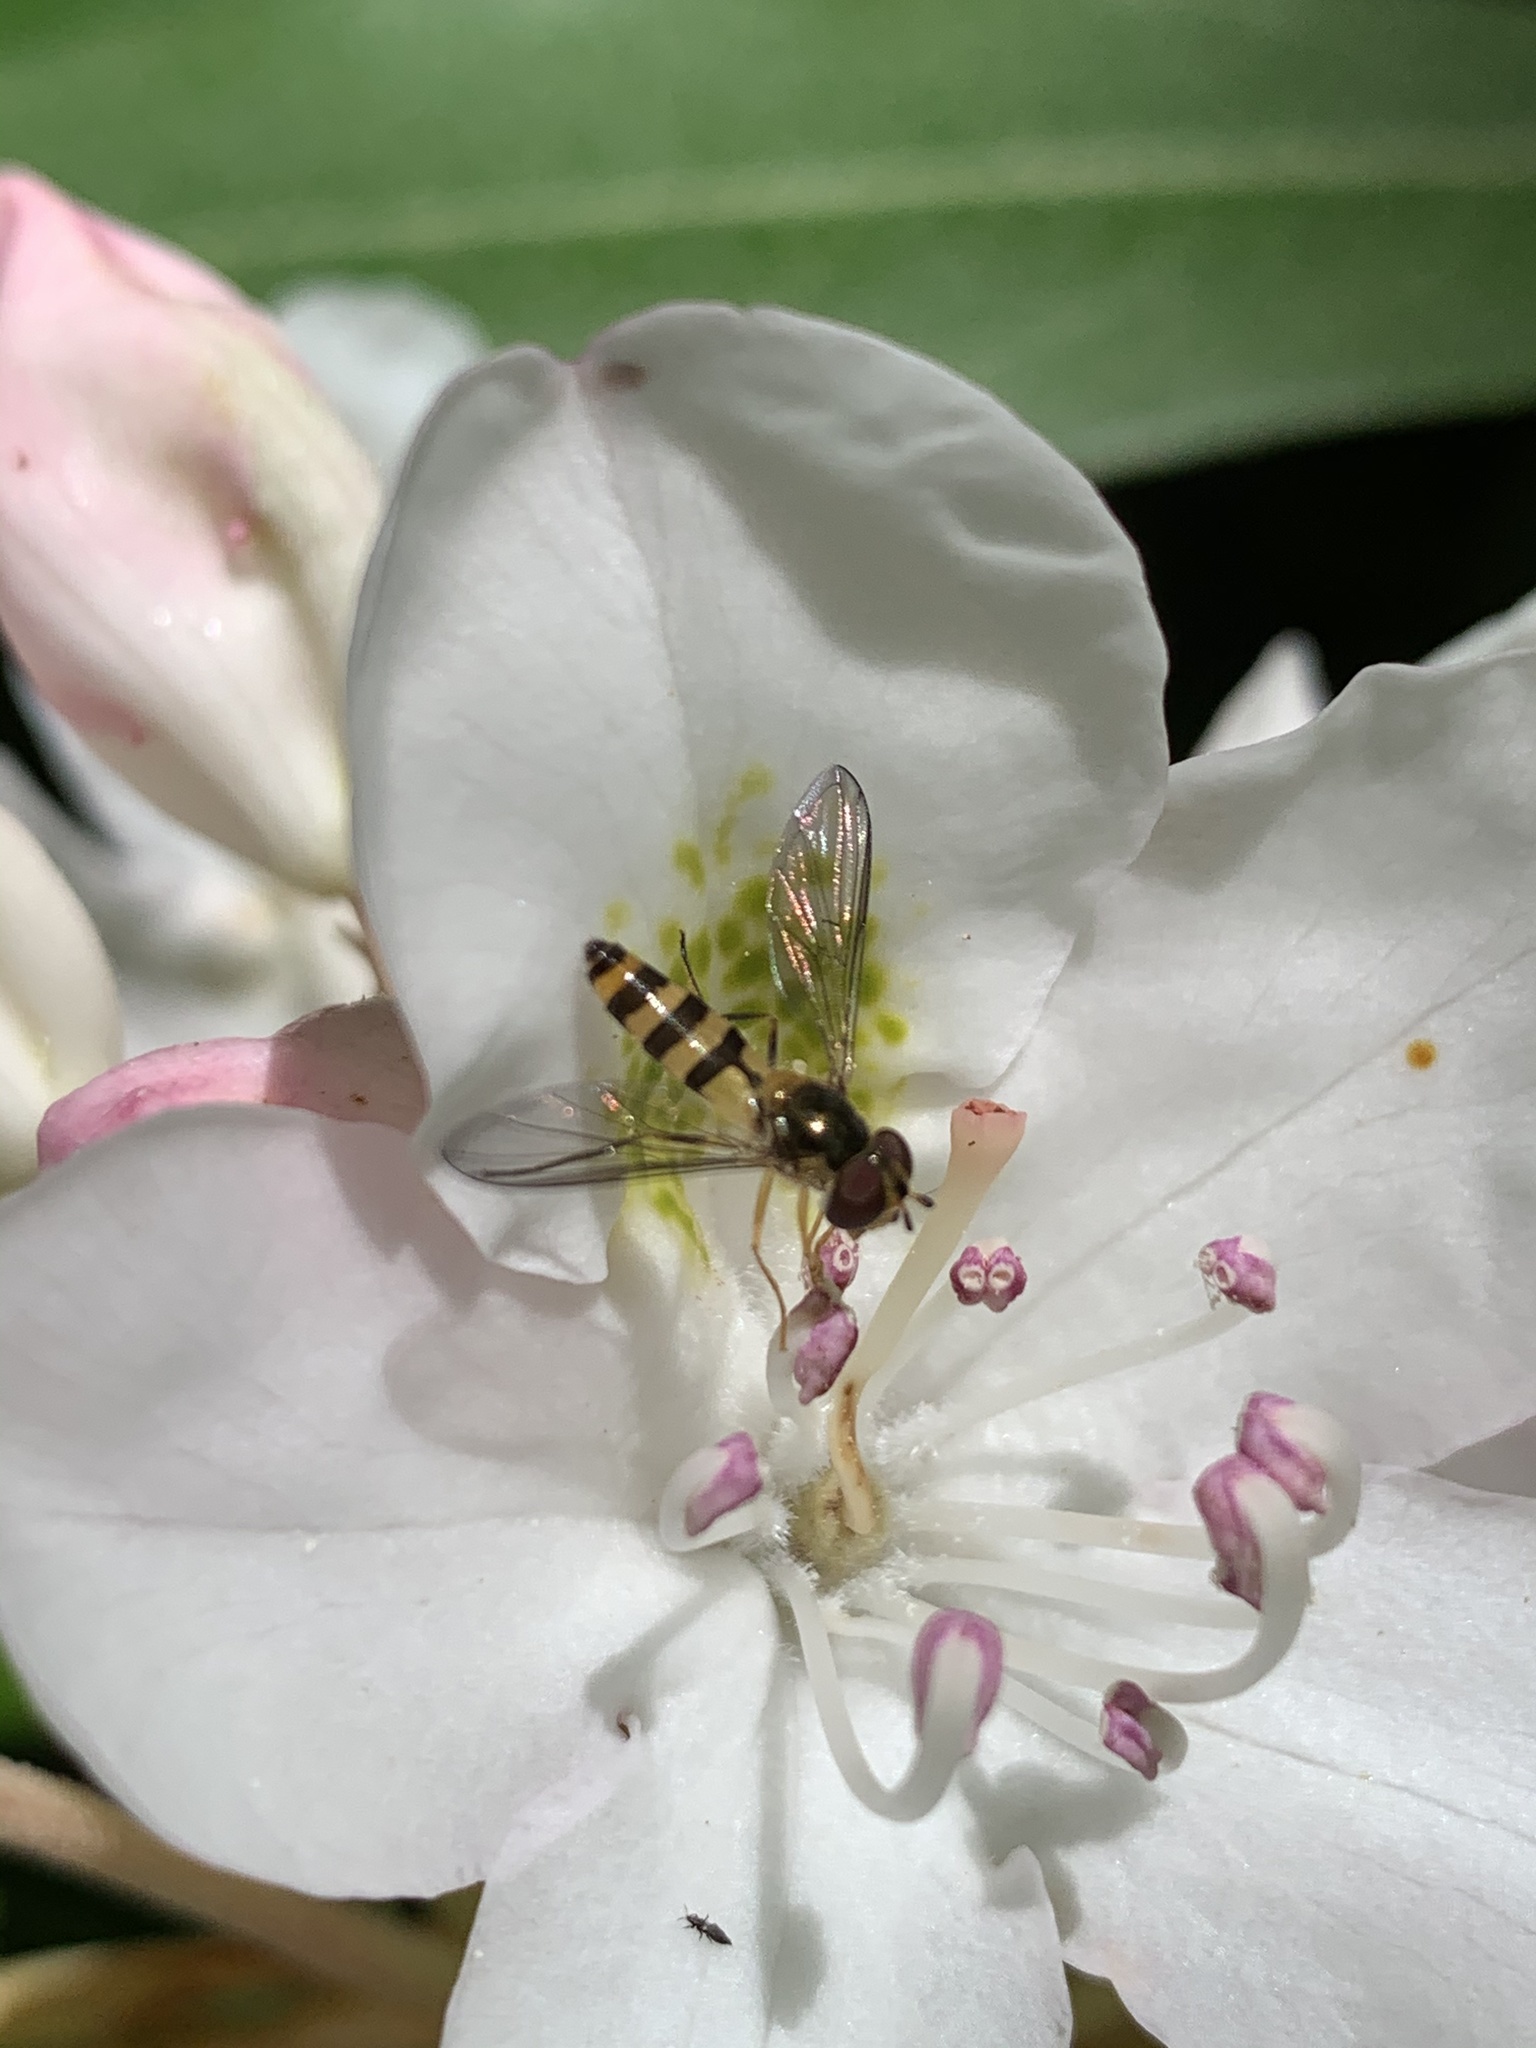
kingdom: Animalia
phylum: Arthropoda
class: Insecta
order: Diptera
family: Syrphidae
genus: Meliscaeva
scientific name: Meliscaeva cinctella
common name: American thintail fly
